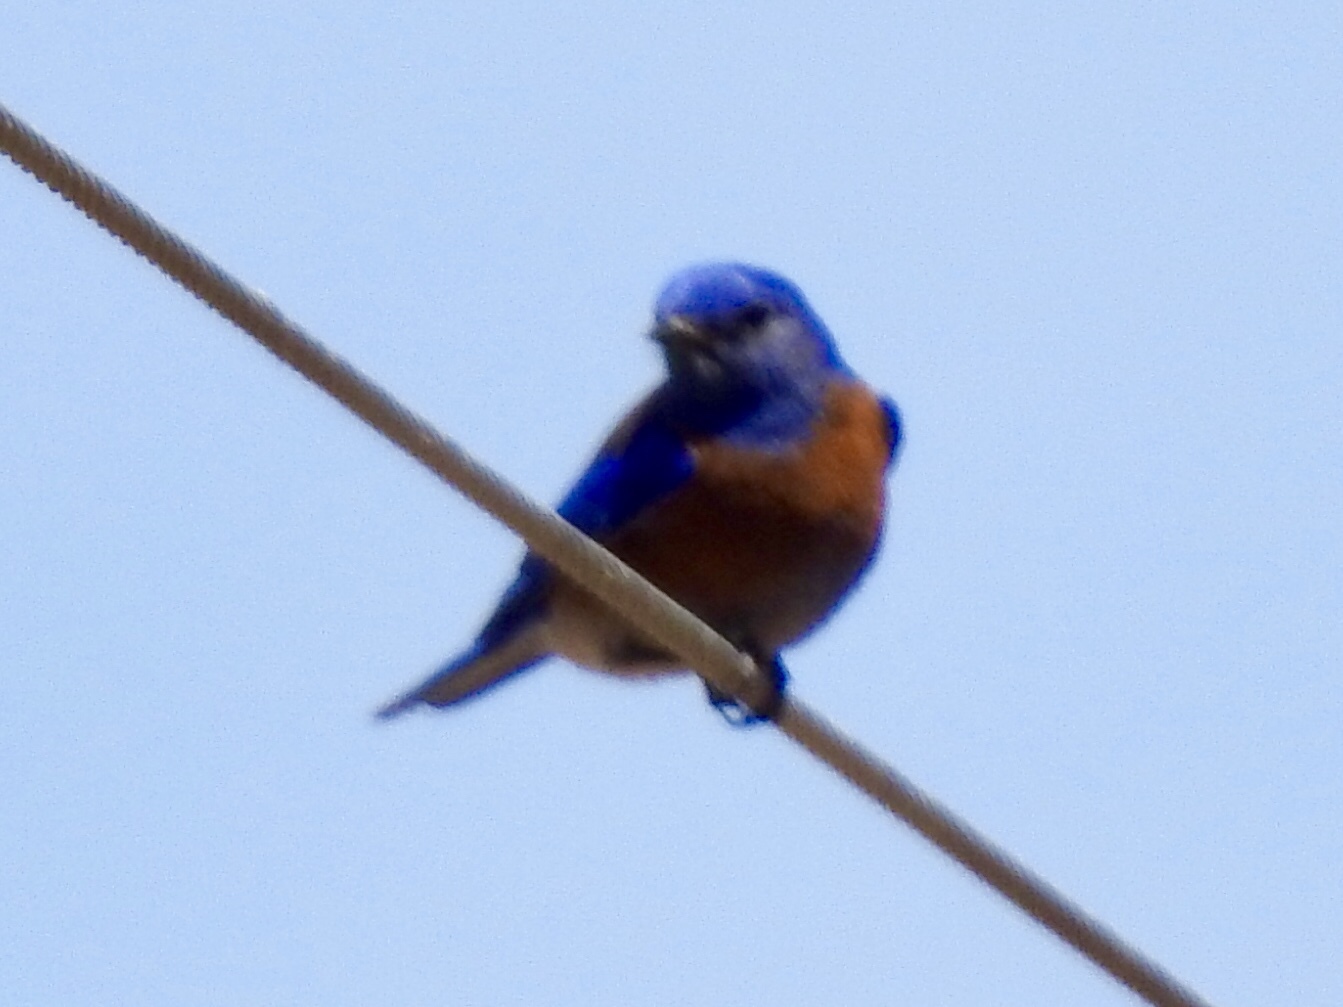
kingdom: Animalia
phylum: Chordata
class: Aves
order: Passeriformes
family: Turdidae
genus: Sialia
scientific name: Sialia mexicana
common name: Western bluebird
